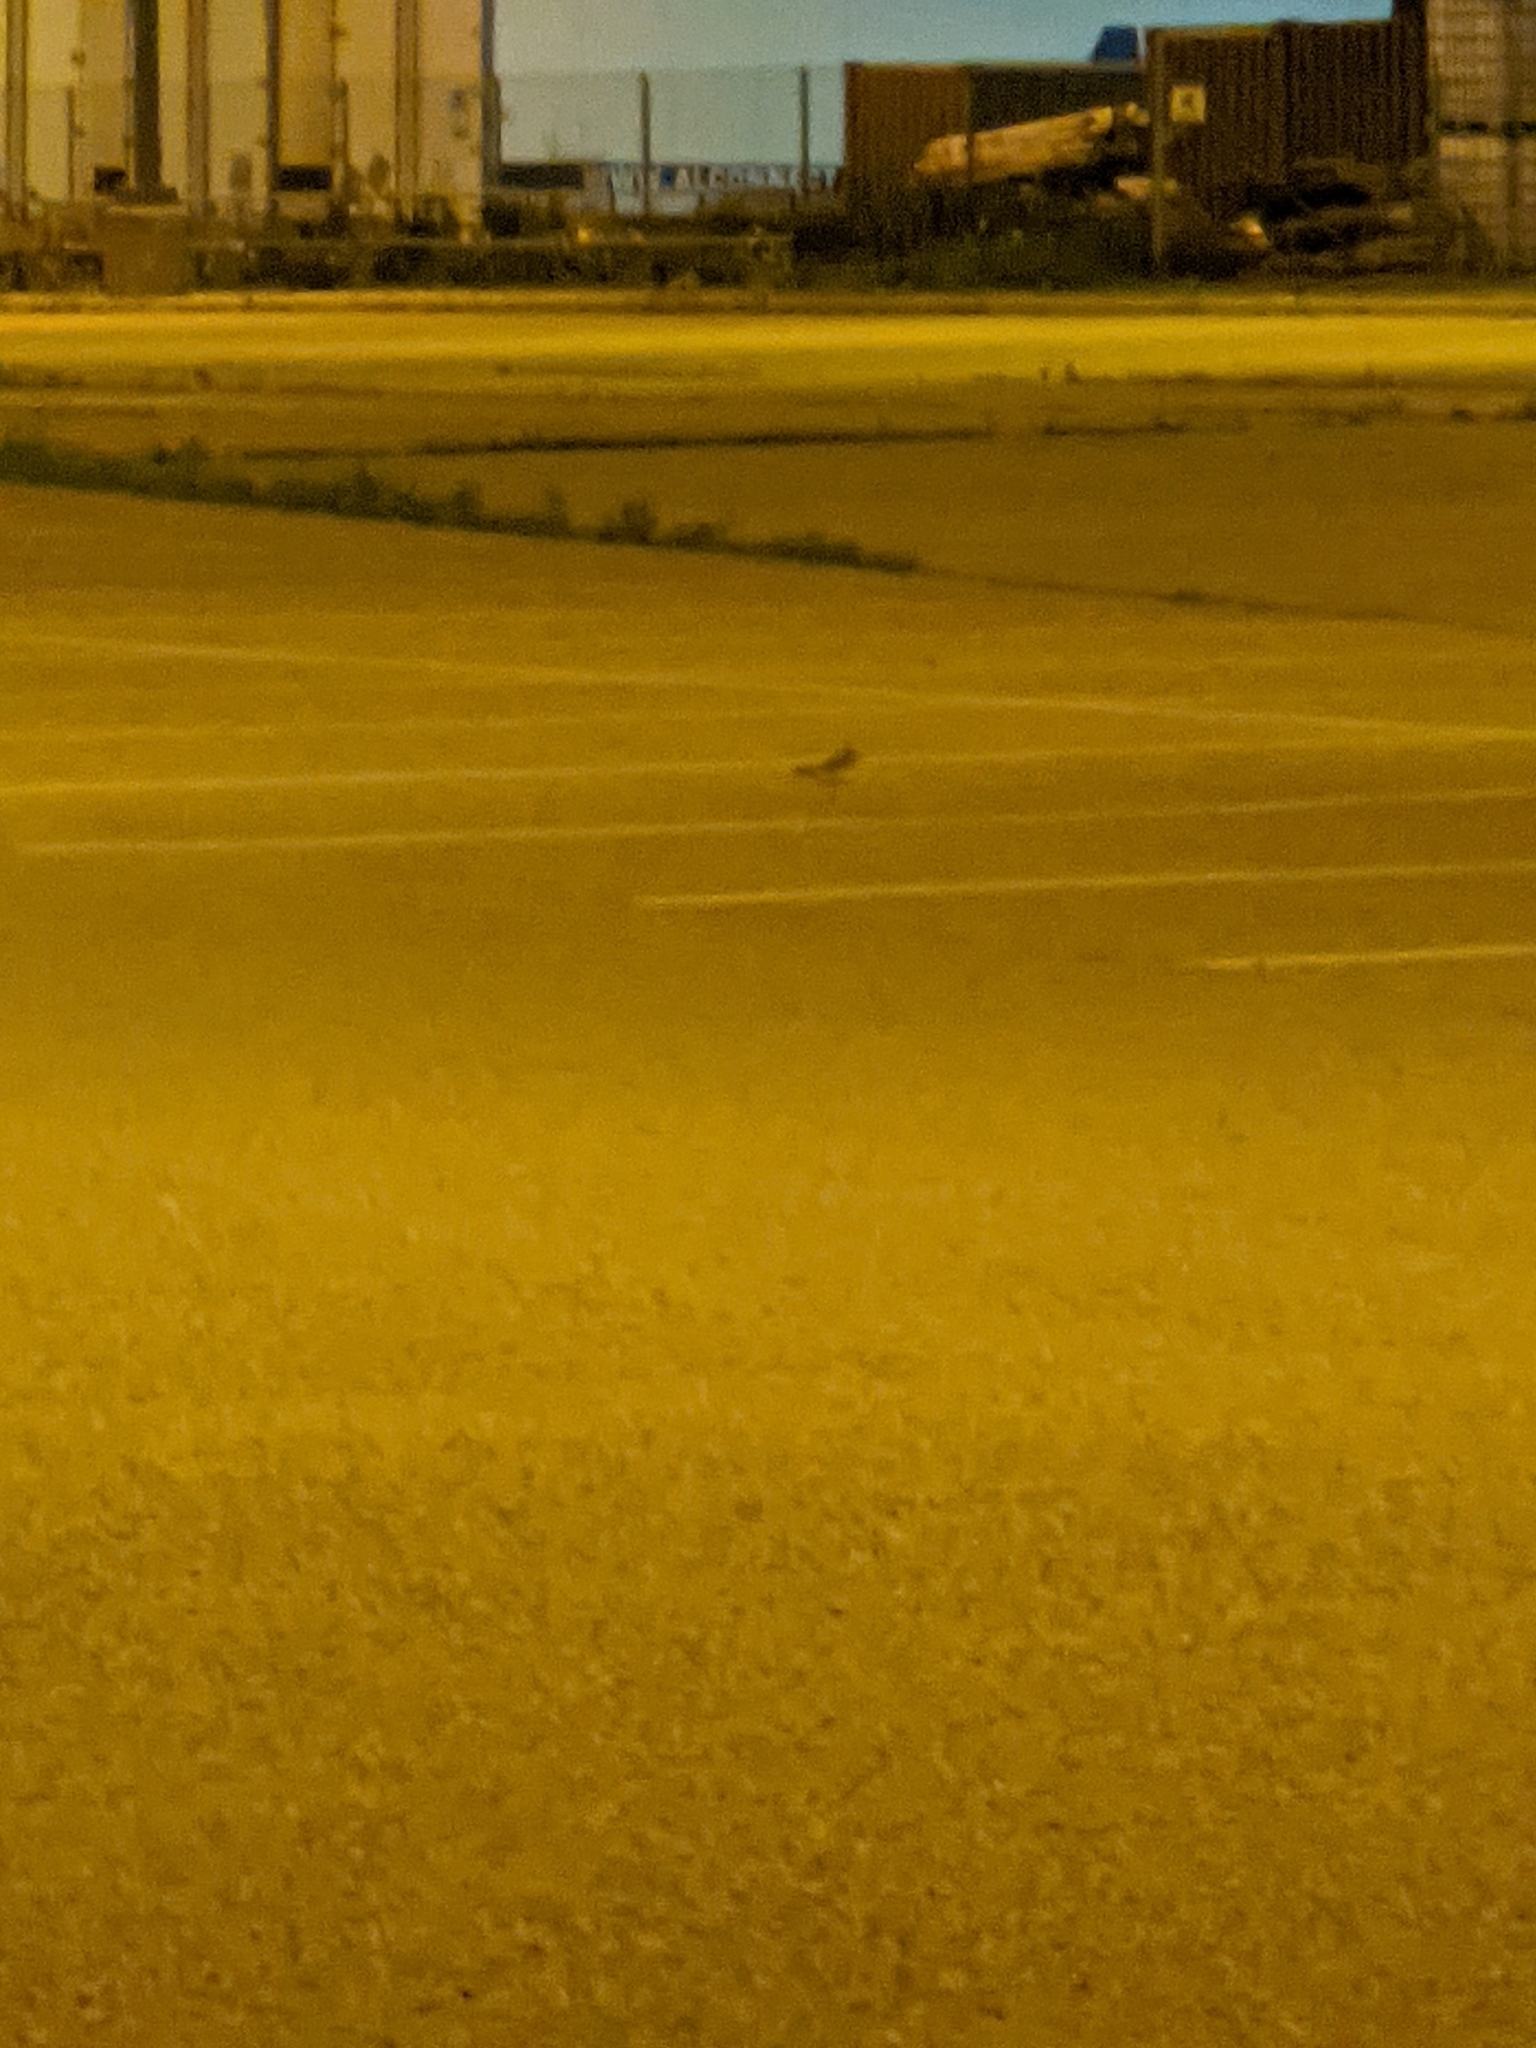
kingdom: Animalia
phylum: Chordata
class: Aves
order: Charadriiformes
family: Charadriidae
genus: Charadrius
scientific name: Charadrius vociferus
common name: Killdeer
